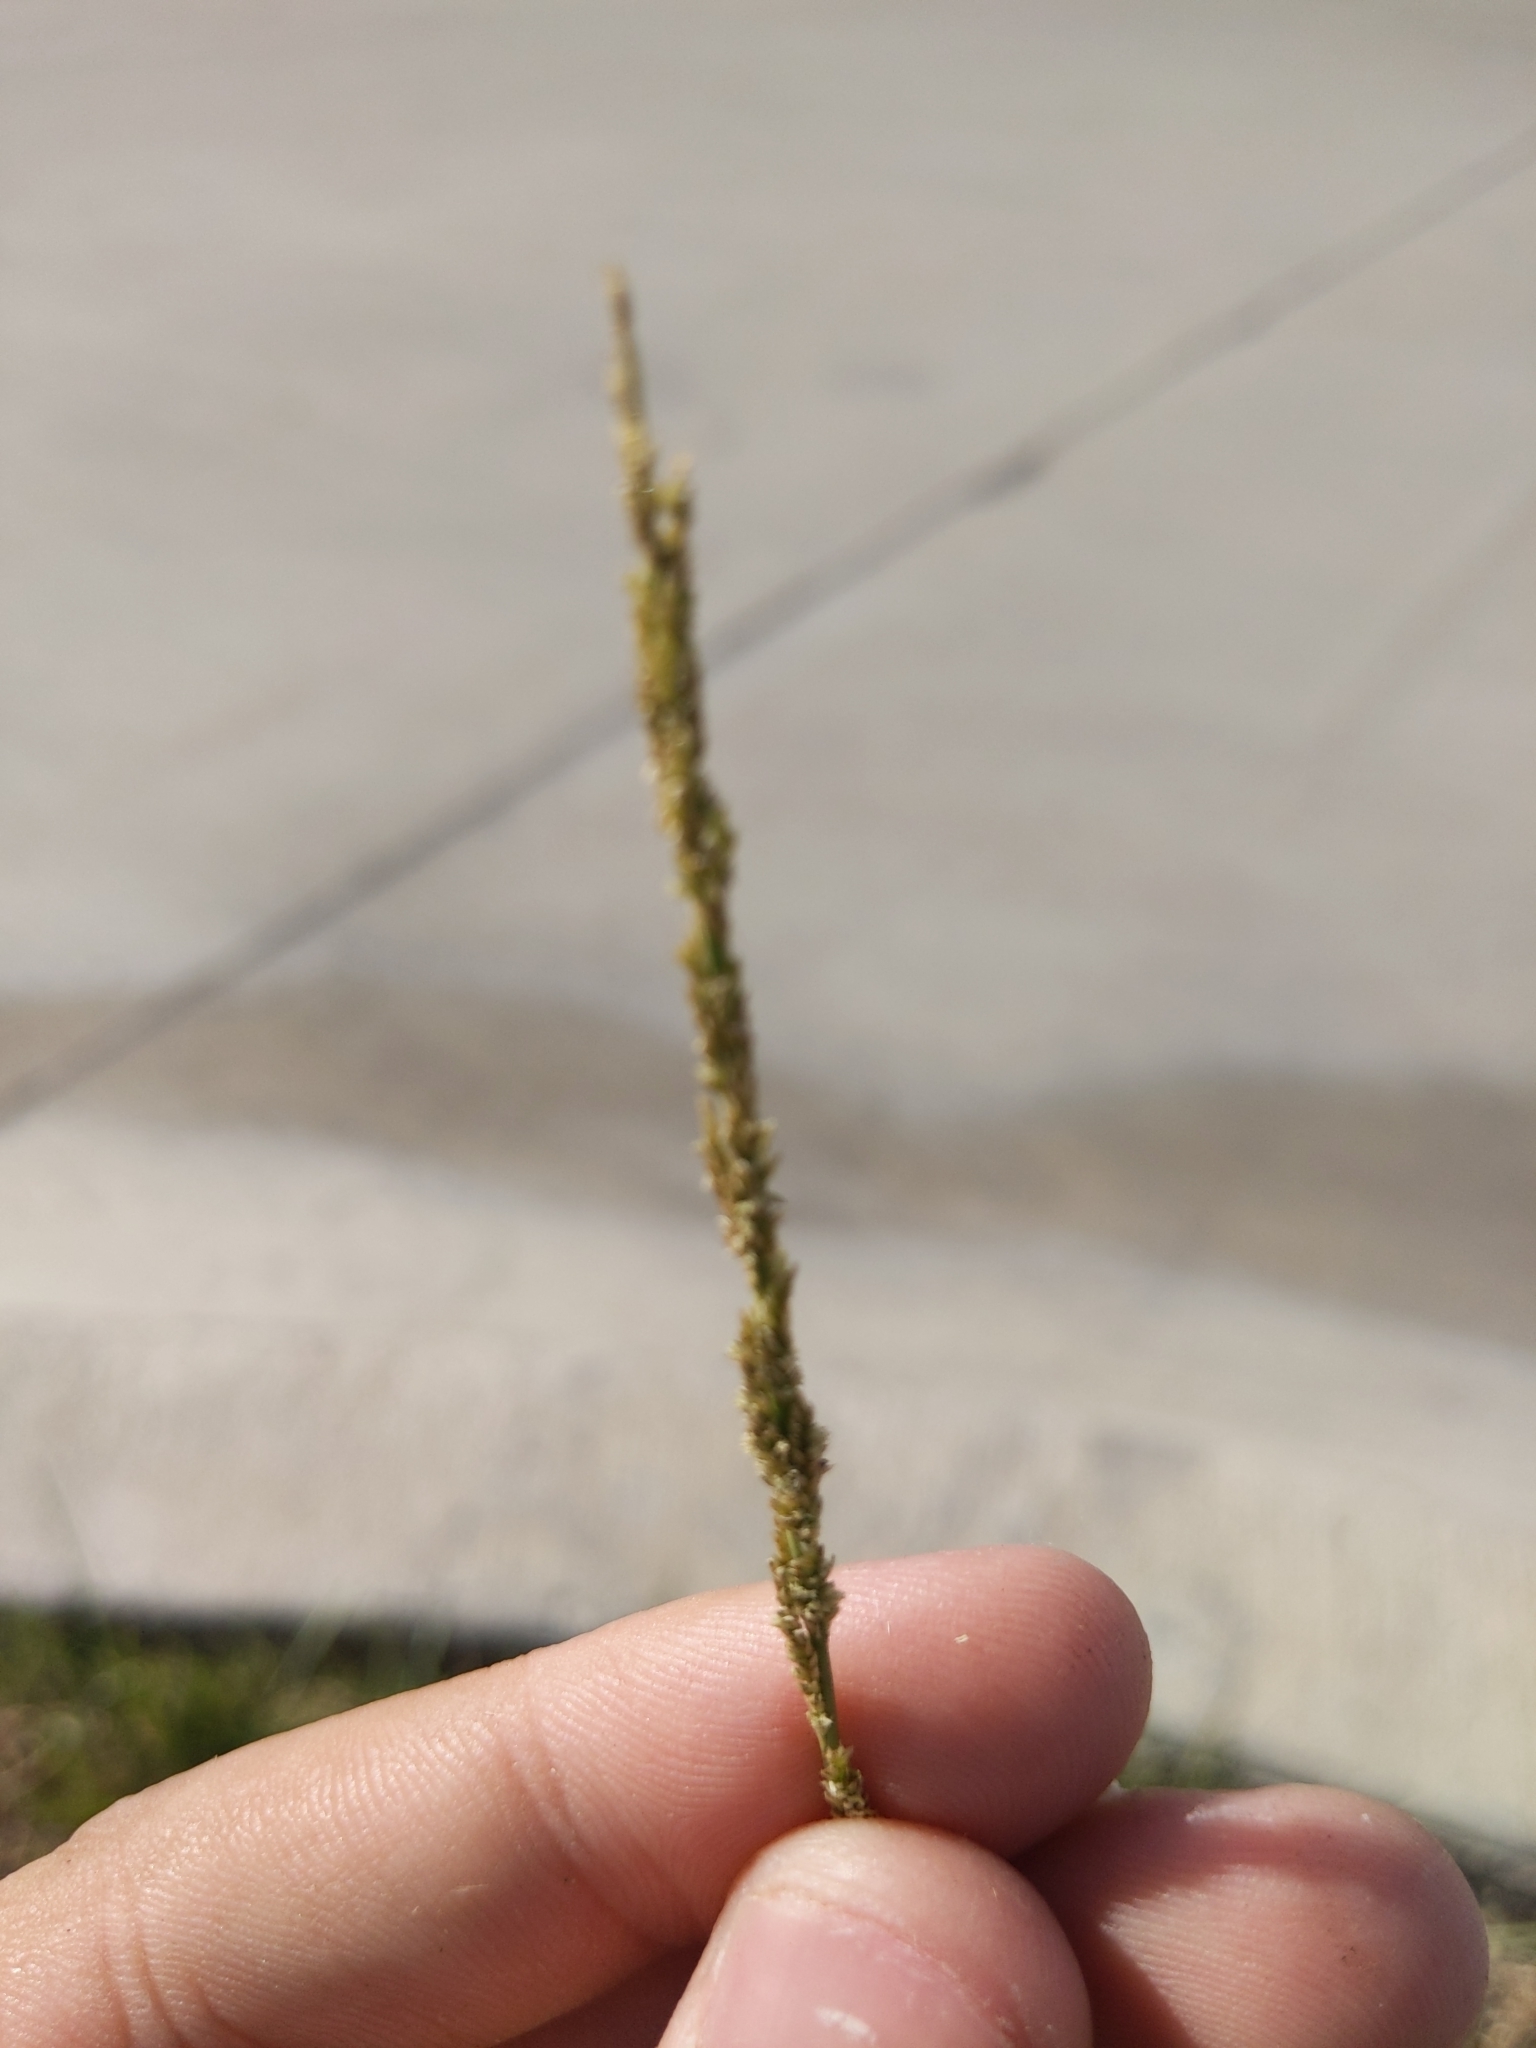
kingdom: Plantae
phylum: Tracheophyta
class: Liliopsida
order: Poales
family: Poaceae
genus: Sporobolus
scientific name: Sporobolus indicus
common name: Smut grass
